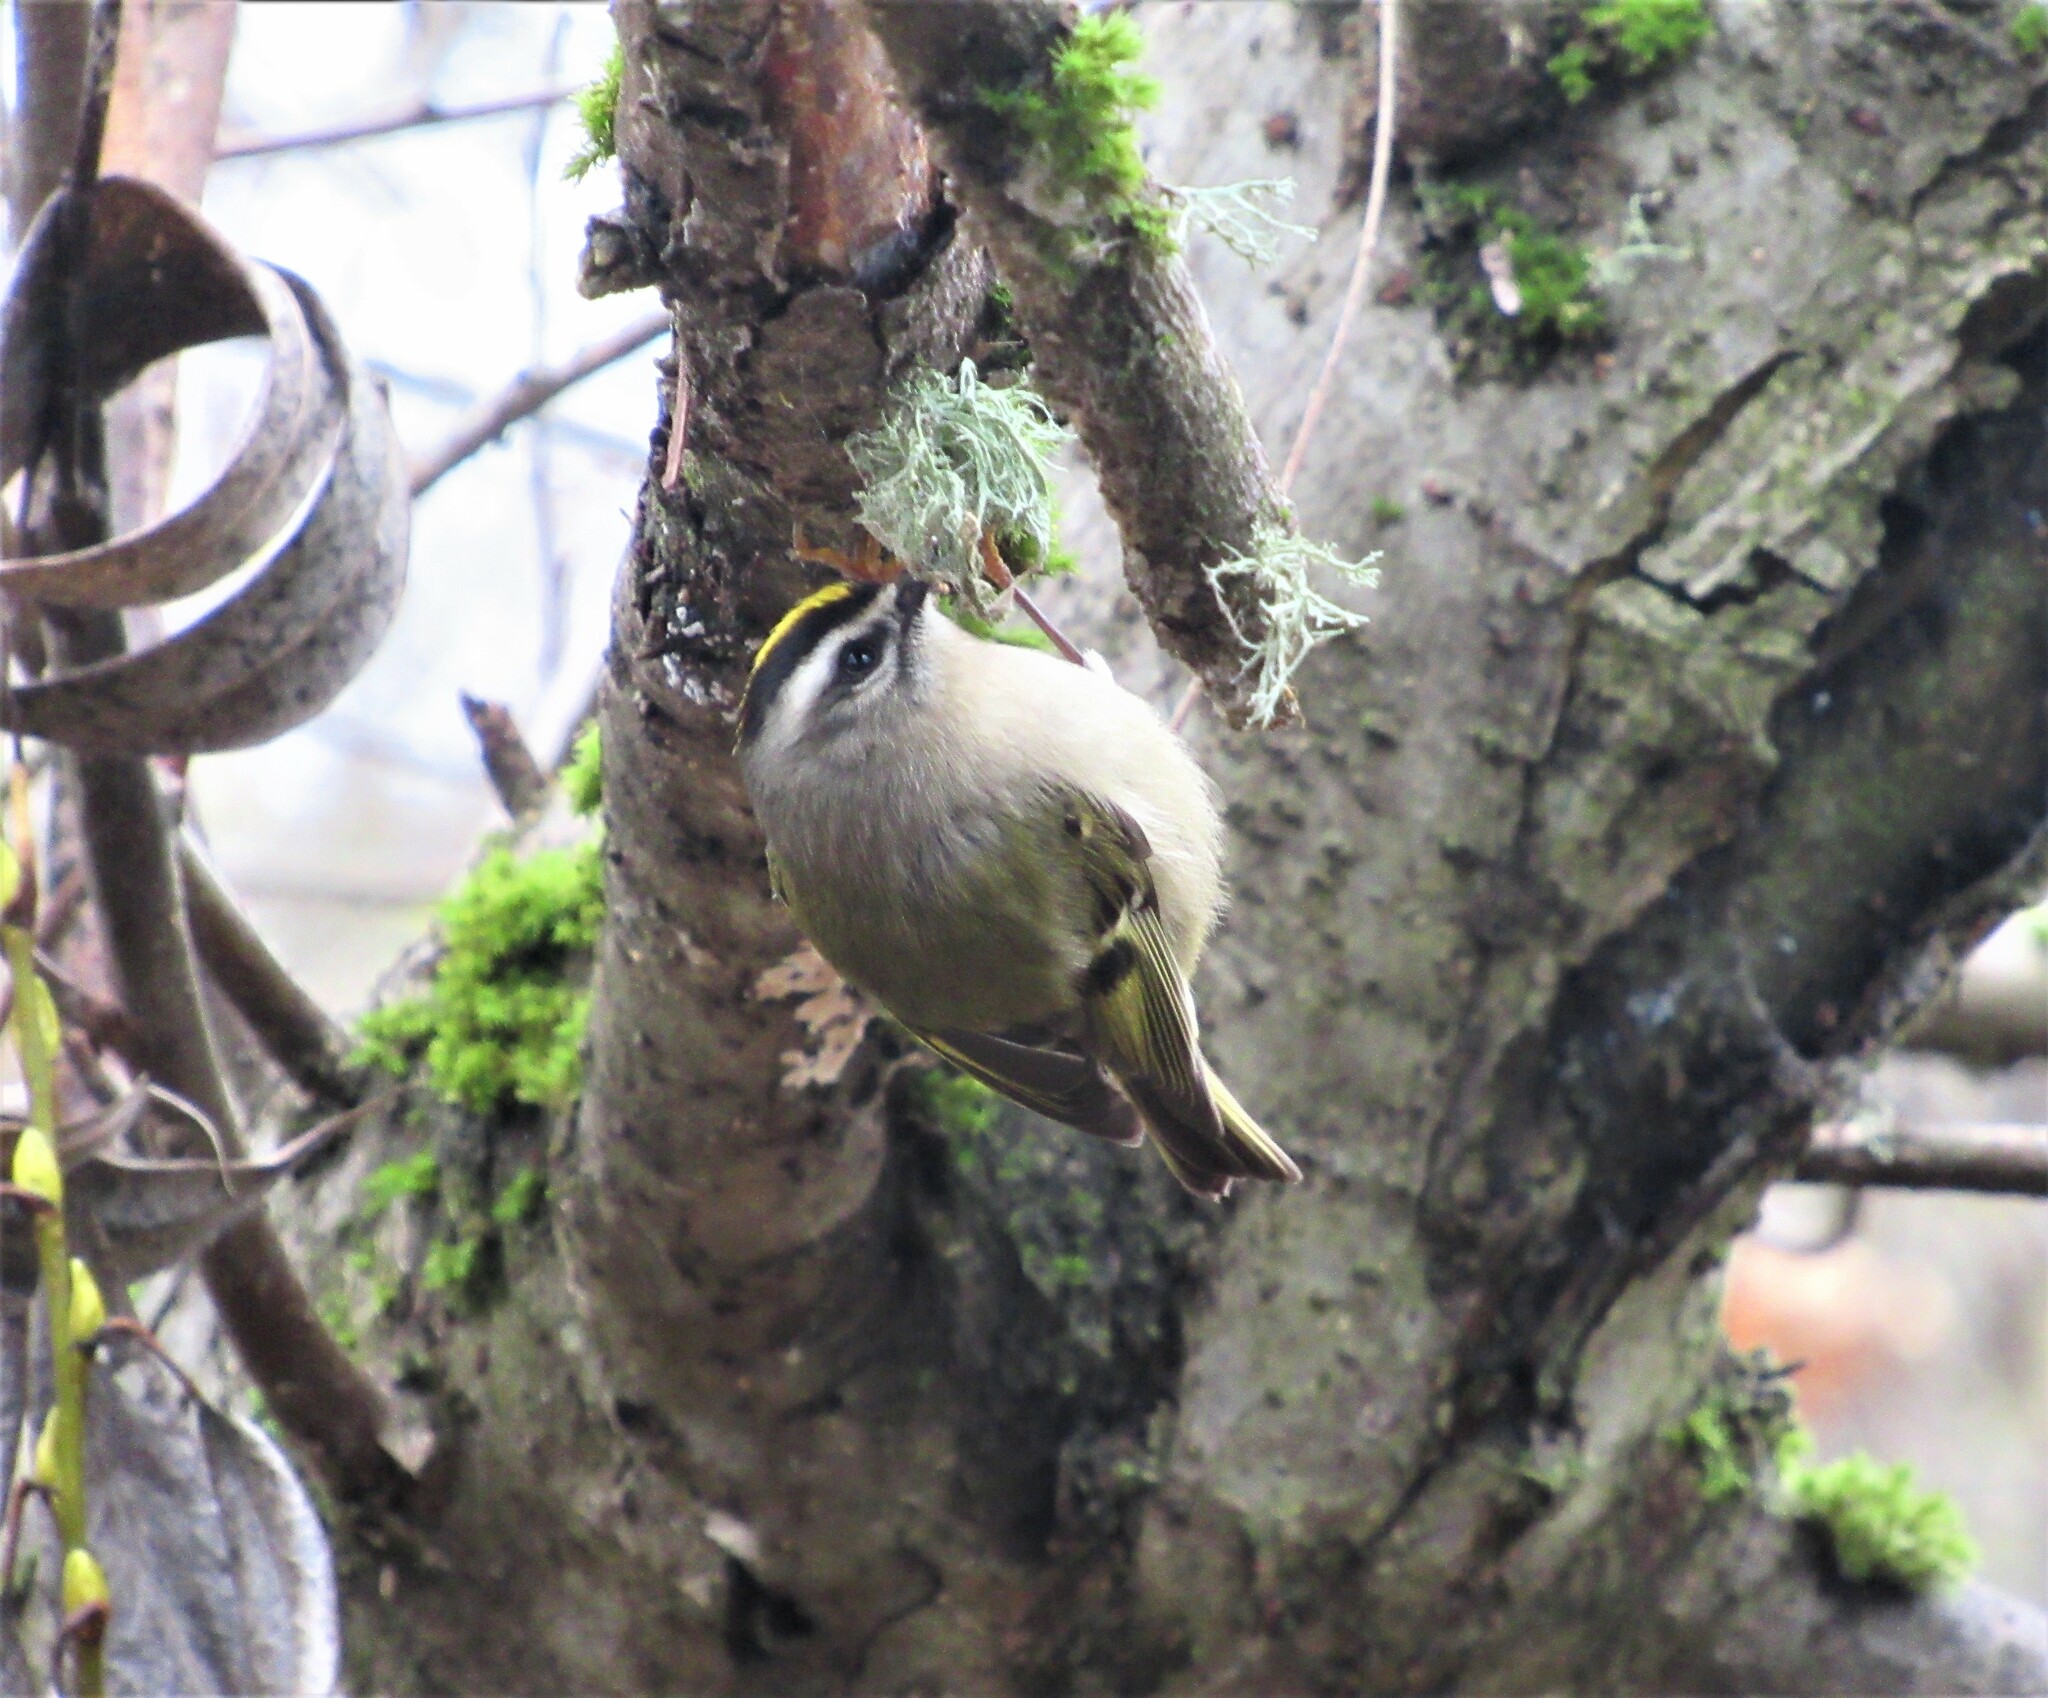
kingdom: Animalia
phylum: Chordata
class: Aves
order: Passeriformes
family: Regulidae
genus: Regulus
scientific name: Regulus satrapa
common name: Golden-crowned kinglet
